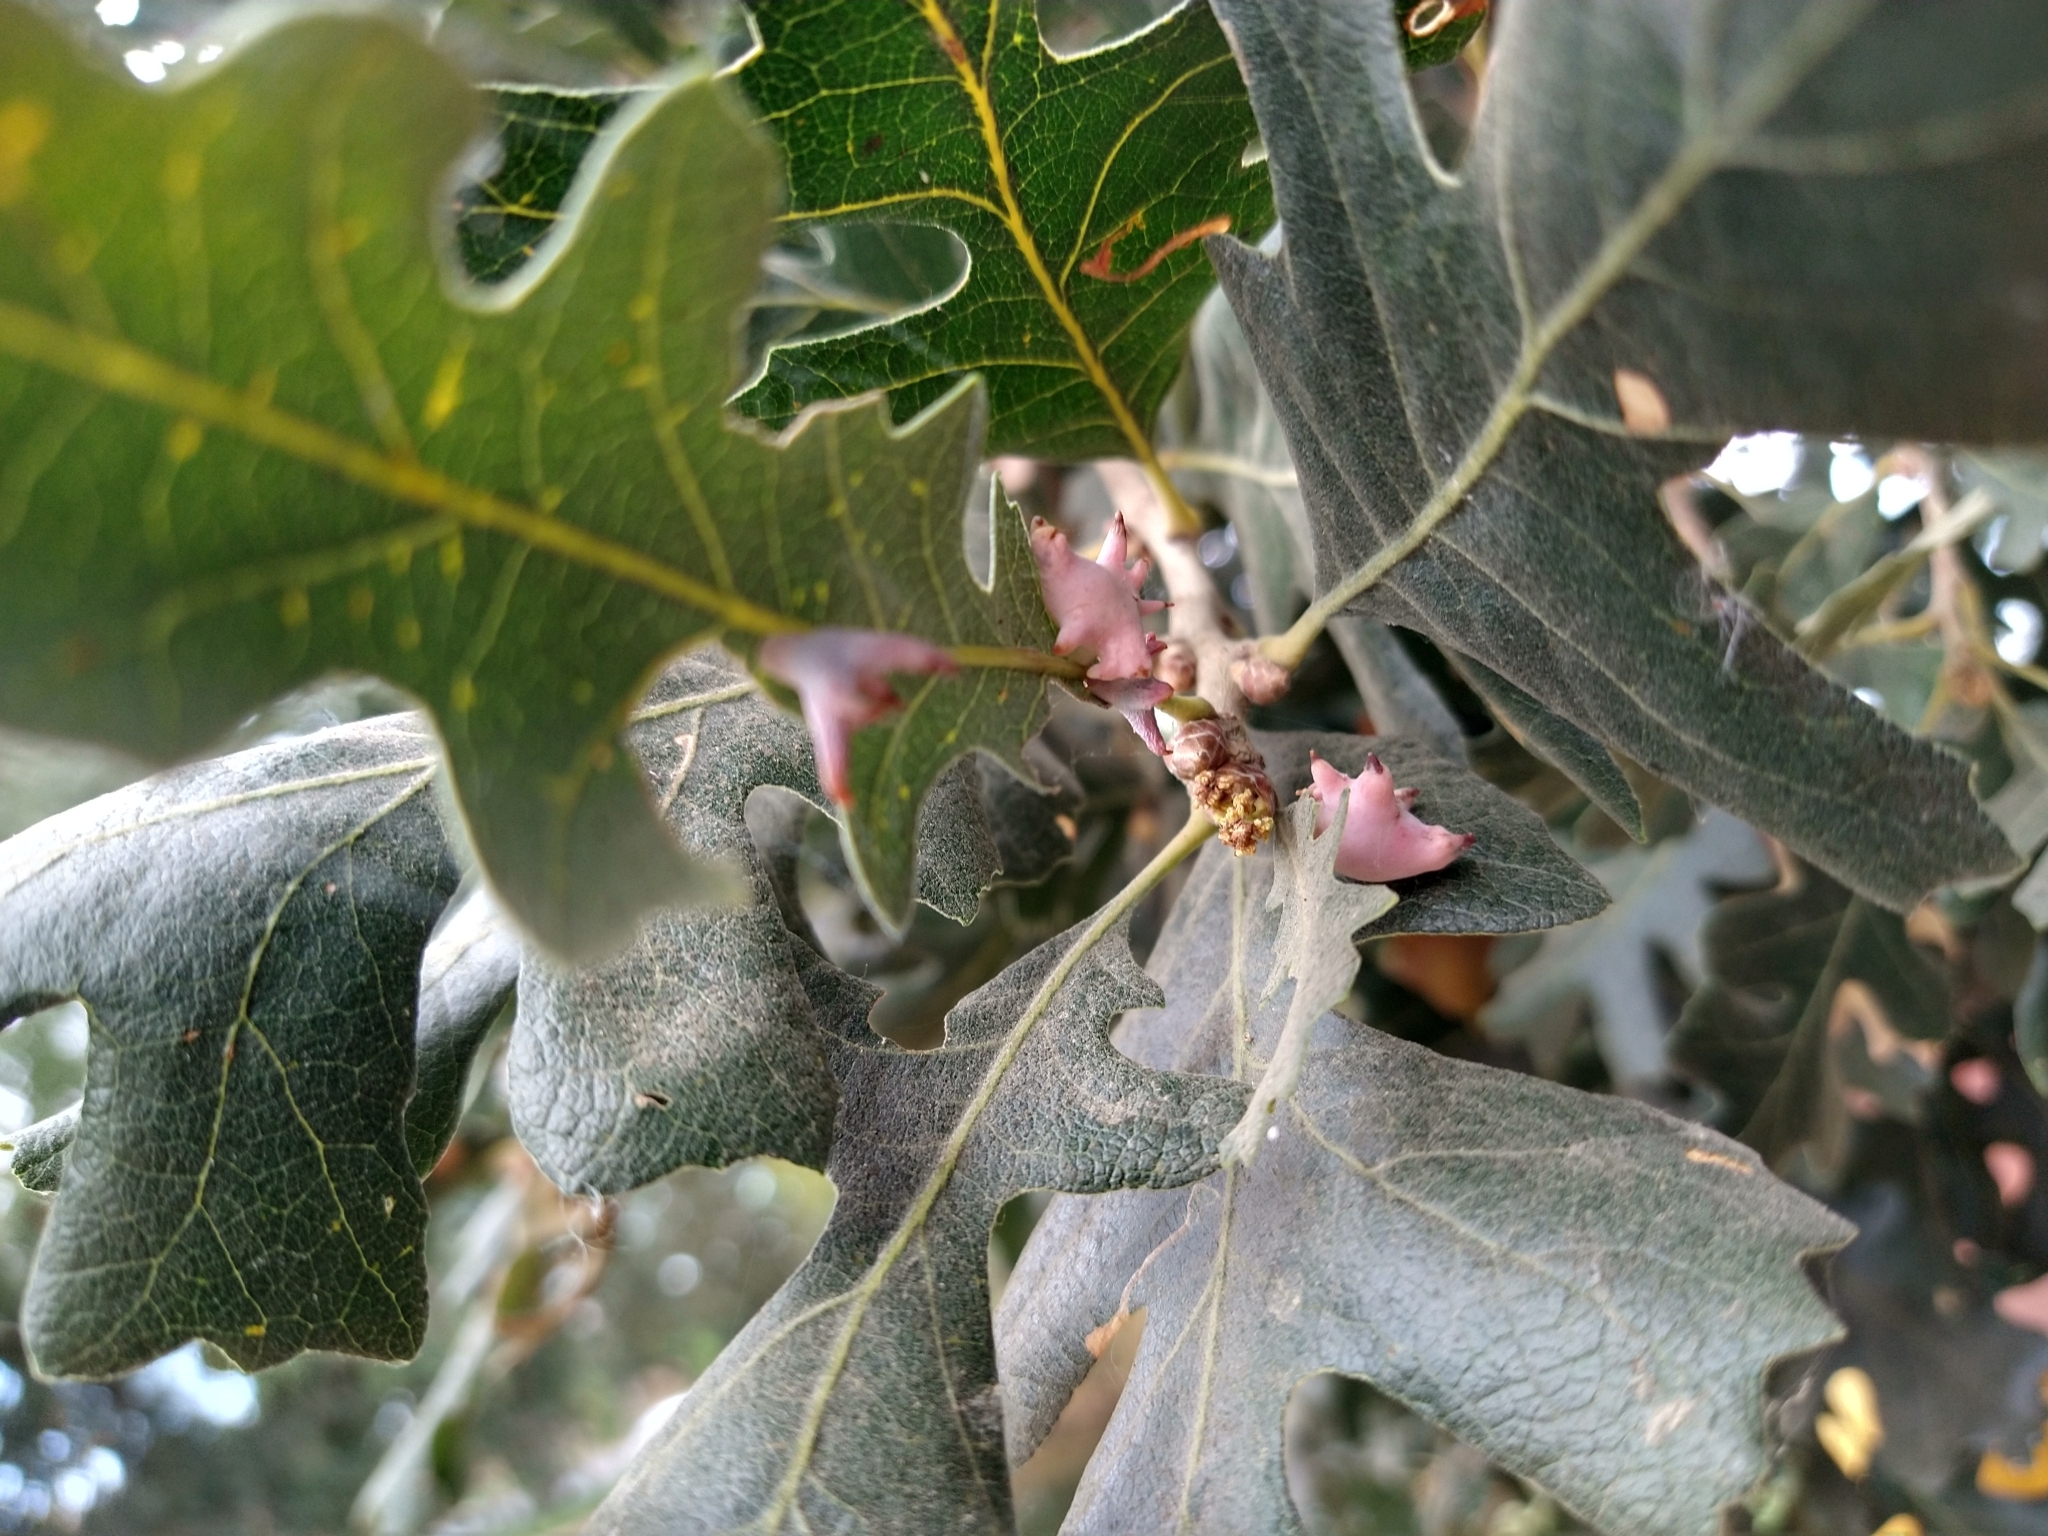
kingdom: Animalia
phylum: Arthropoda
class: Insecta
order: Hymenoptera
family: Cynipidae
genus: Cynips
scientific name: Cynips douglasi
